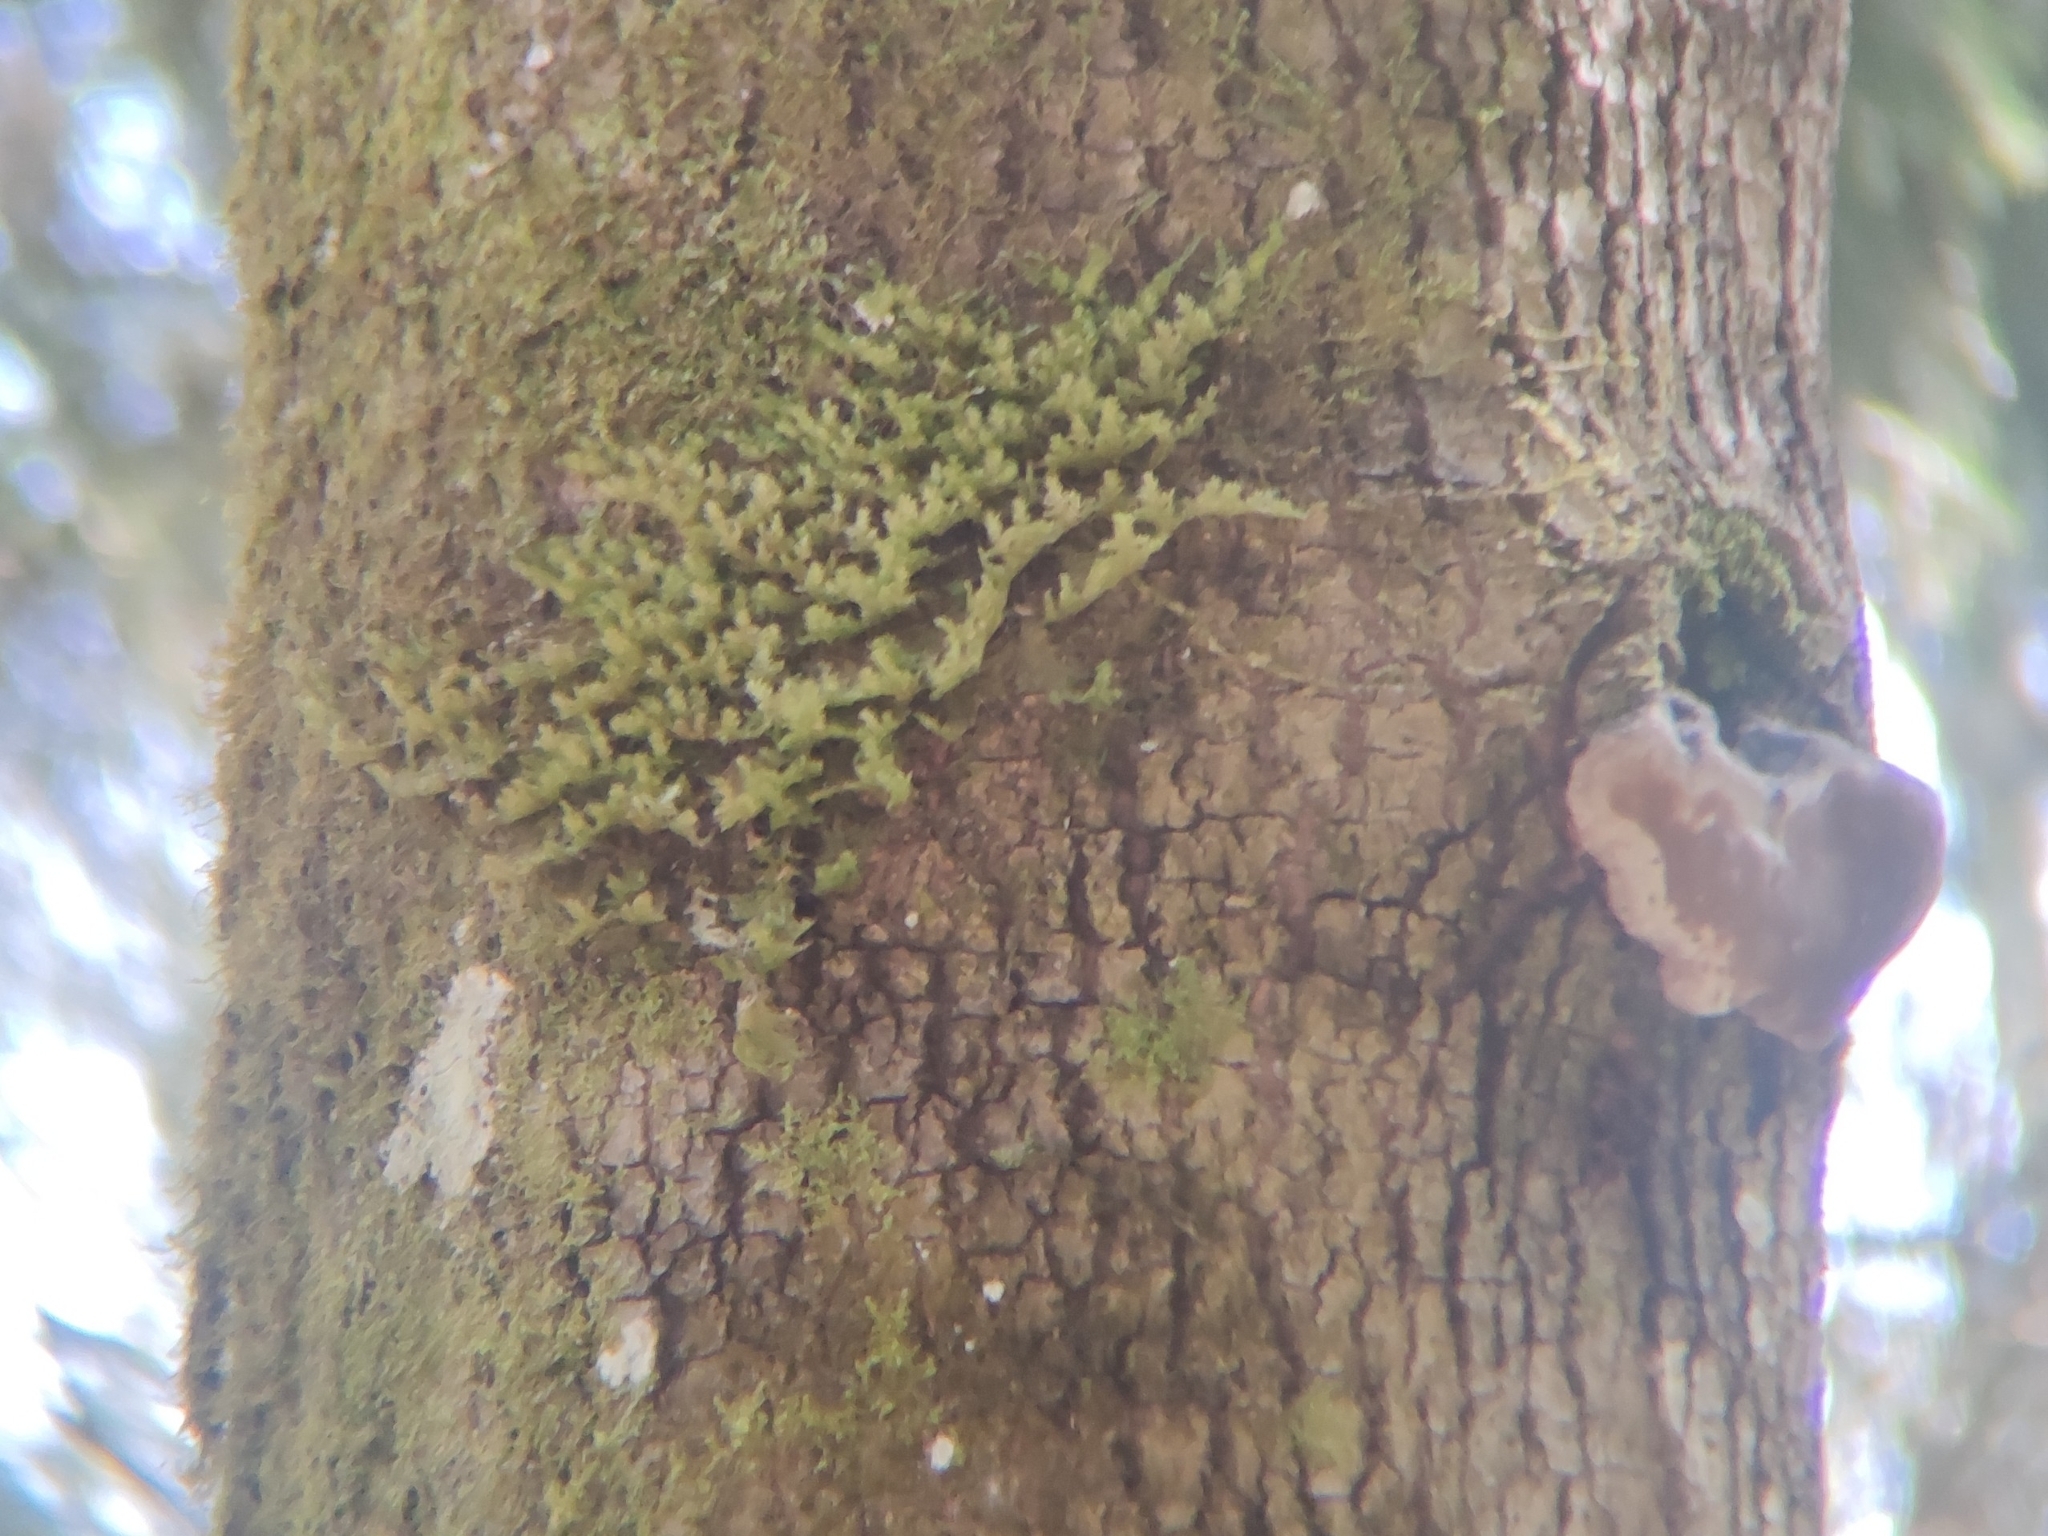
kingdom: Plantae
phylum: Bryophyta
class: Bryopsida
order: Hypnales
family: Neckeraceae
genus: Neckera
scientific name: Neckera pennata
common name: Feathery neckera
